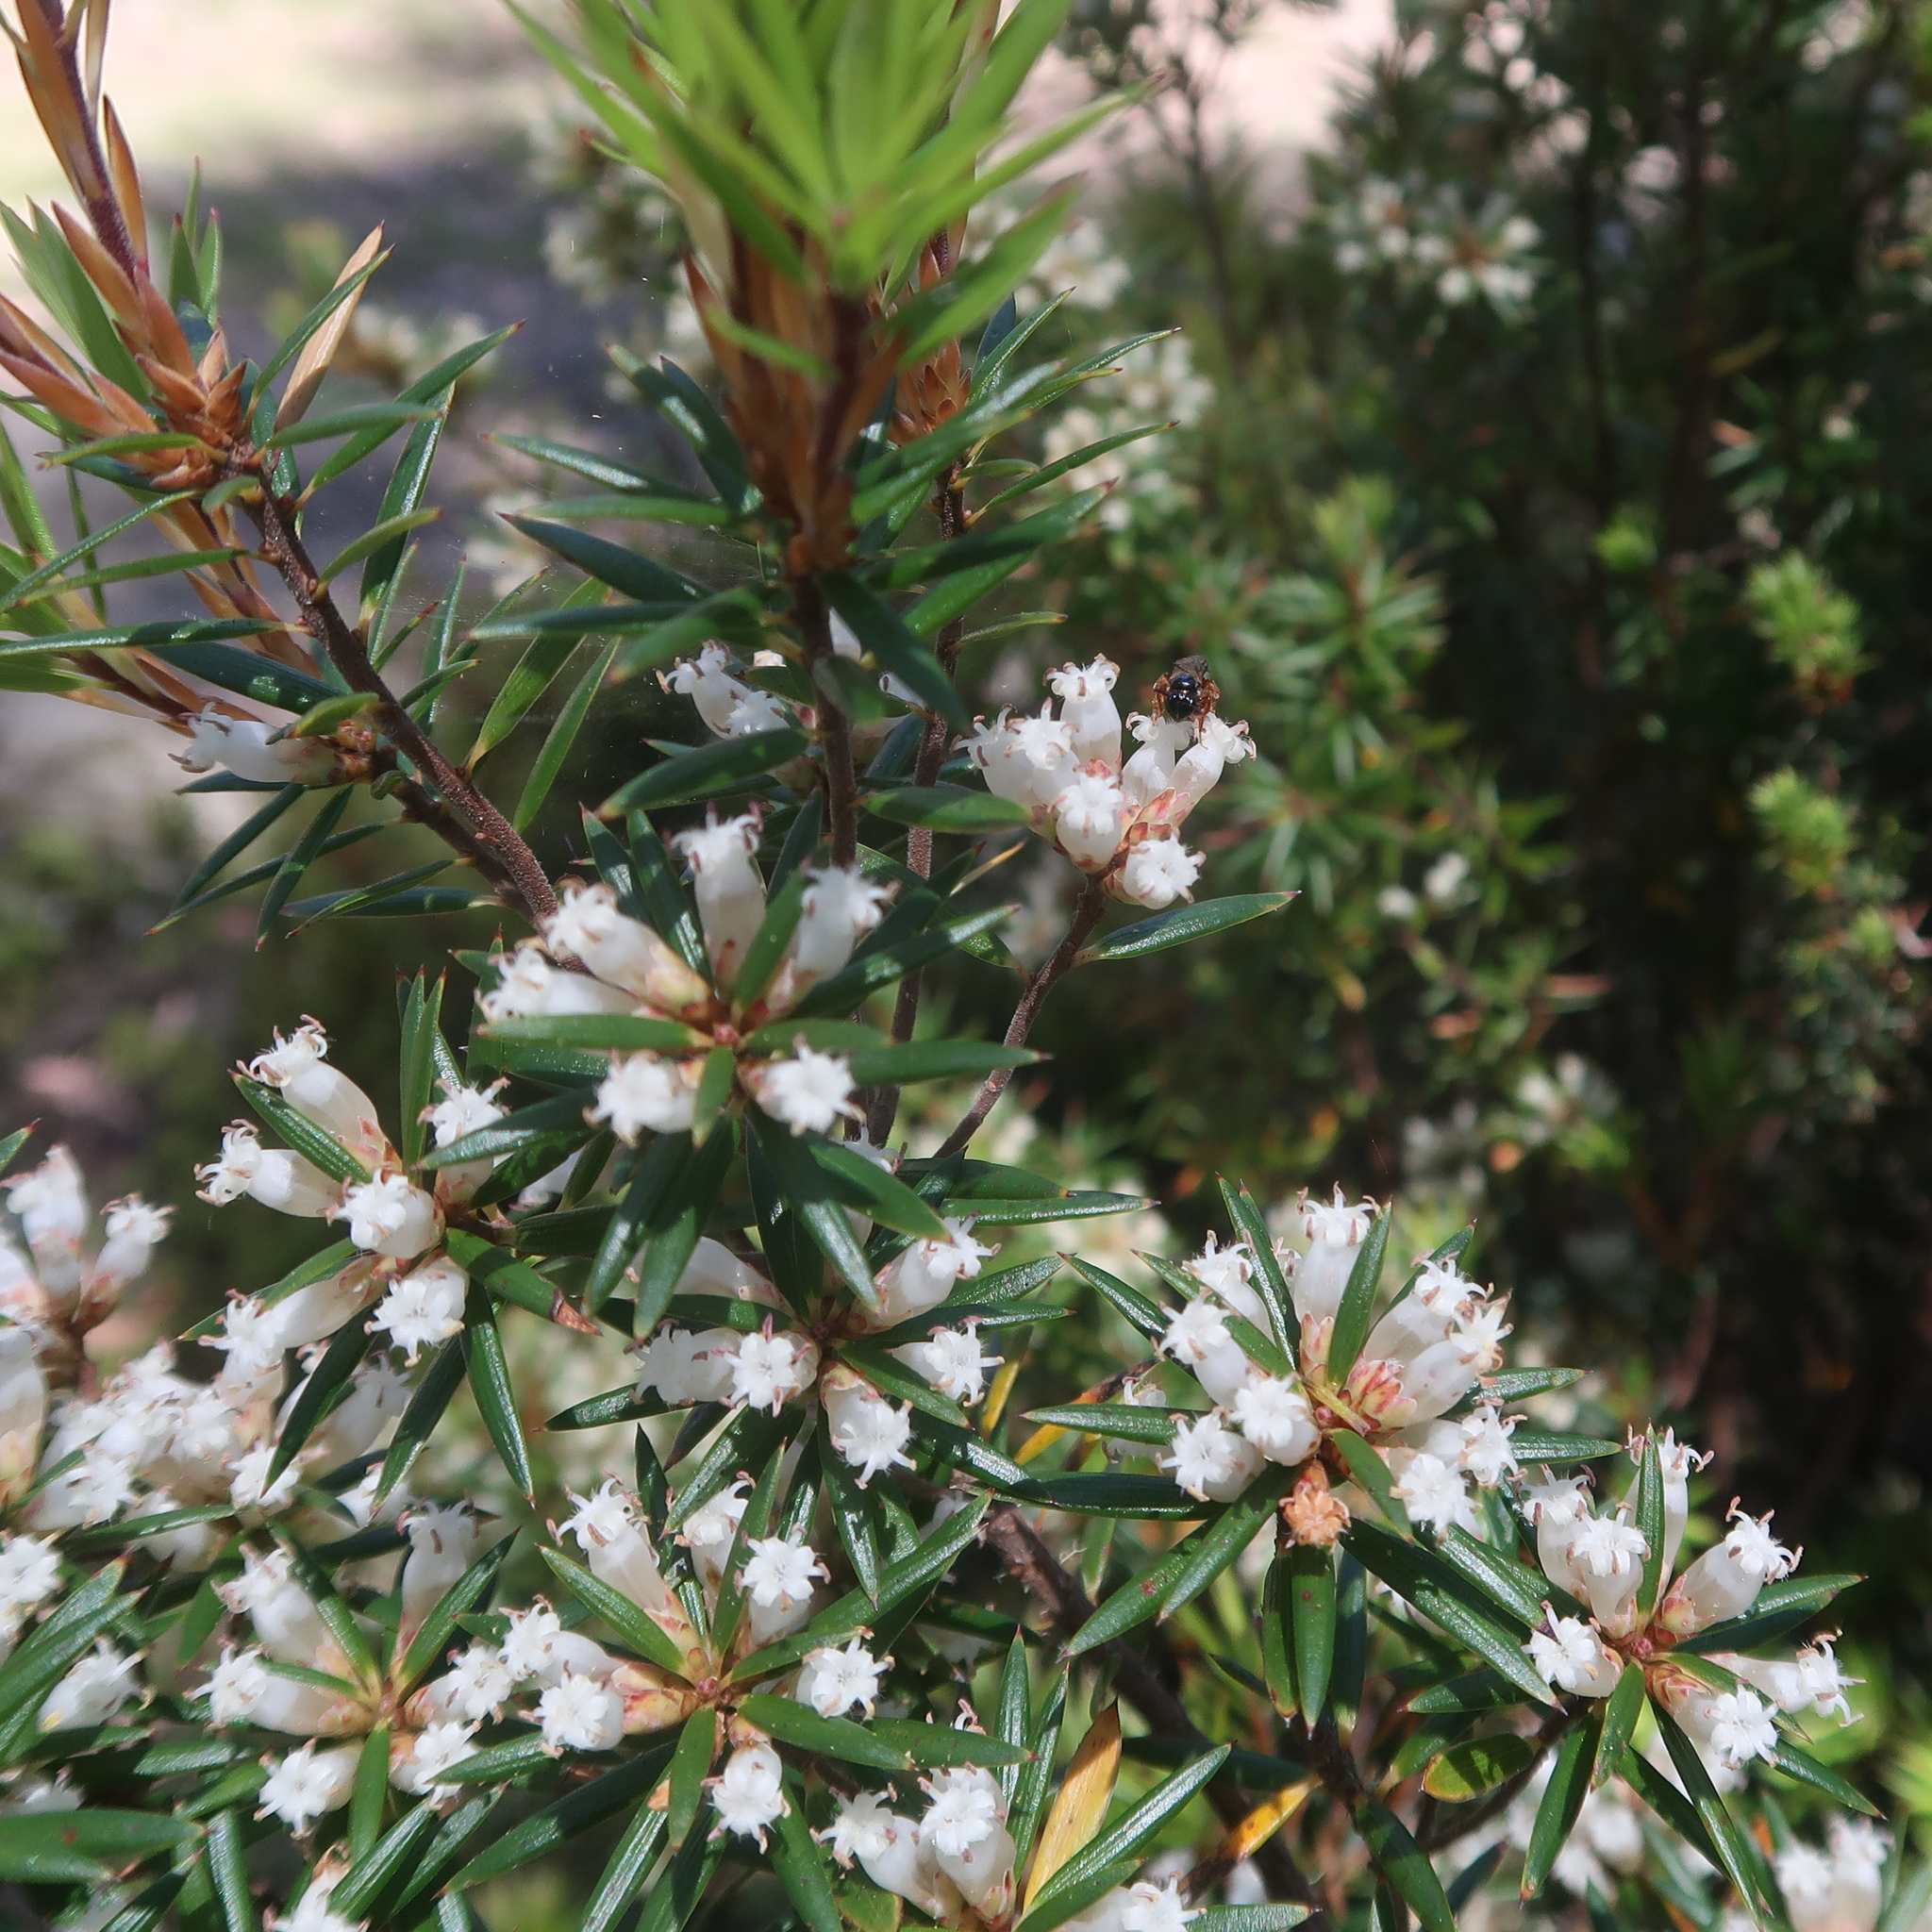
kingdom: Plantae
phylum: Tracheophyta
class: Magnoliopsida
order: Ericales
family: Ericaceae
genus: Cyathodes
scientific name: Cyathodes glauca
